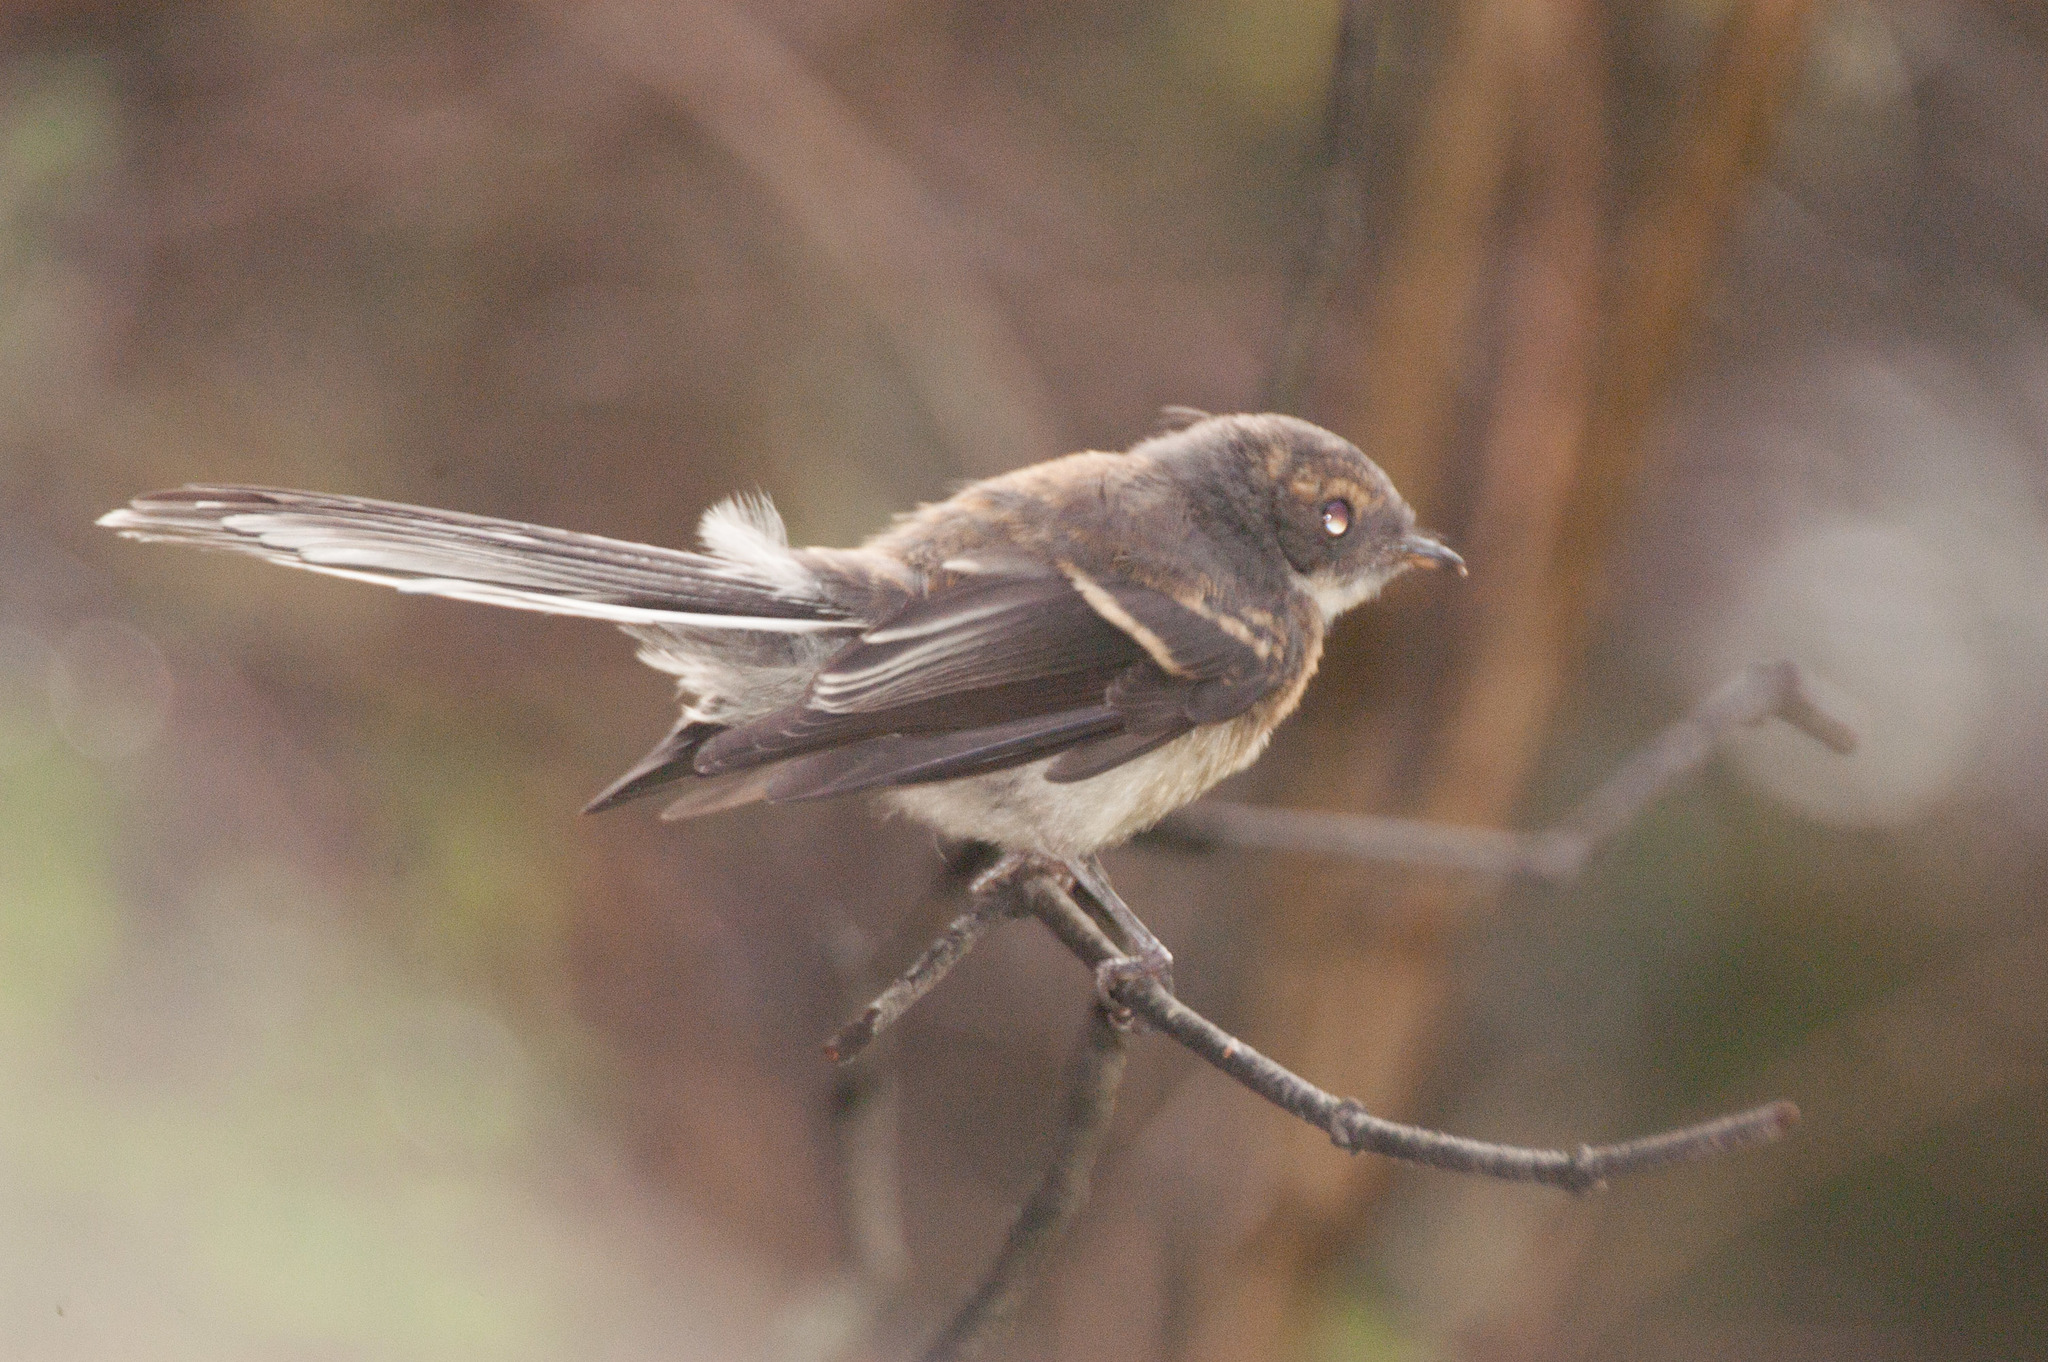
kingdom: Animalia
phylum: Chordata
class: Aves
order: Passeriformes
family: Rhipiduridae
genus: Rhipidura
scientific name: Rhipidura albiscapa
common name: Grey fantail
